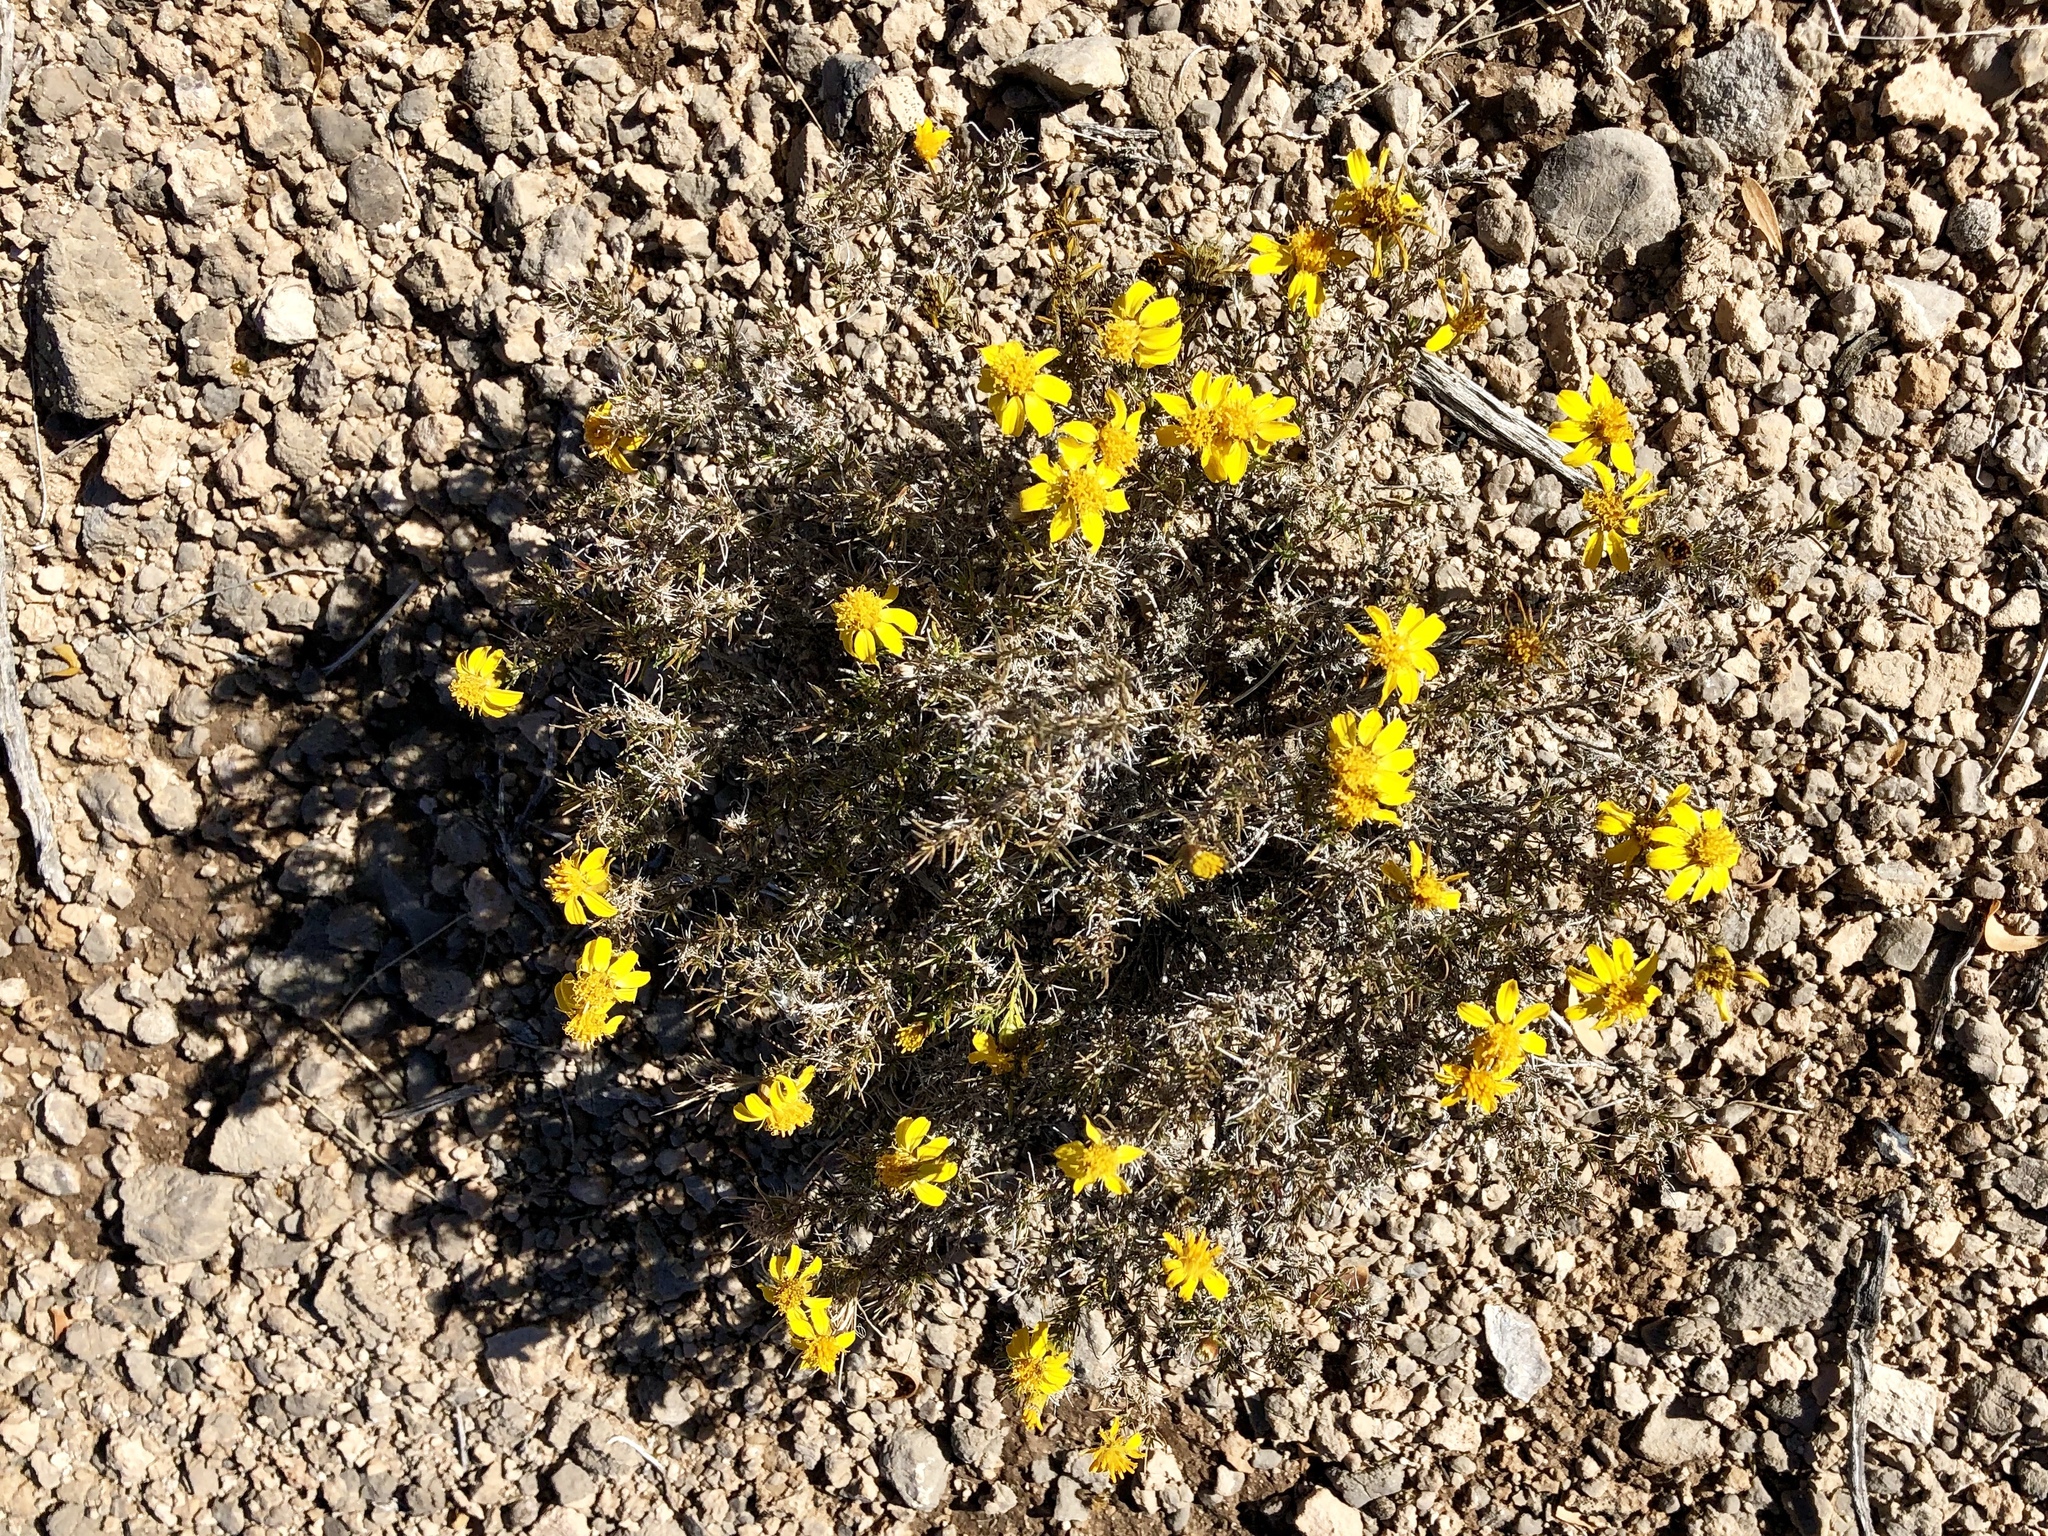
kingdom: Plantae
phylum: Tracheophyta
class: Magnoliopsida
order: Asterales
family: Asteraceae
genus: Thymophylla
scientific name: Thymophylla pentachaeta
